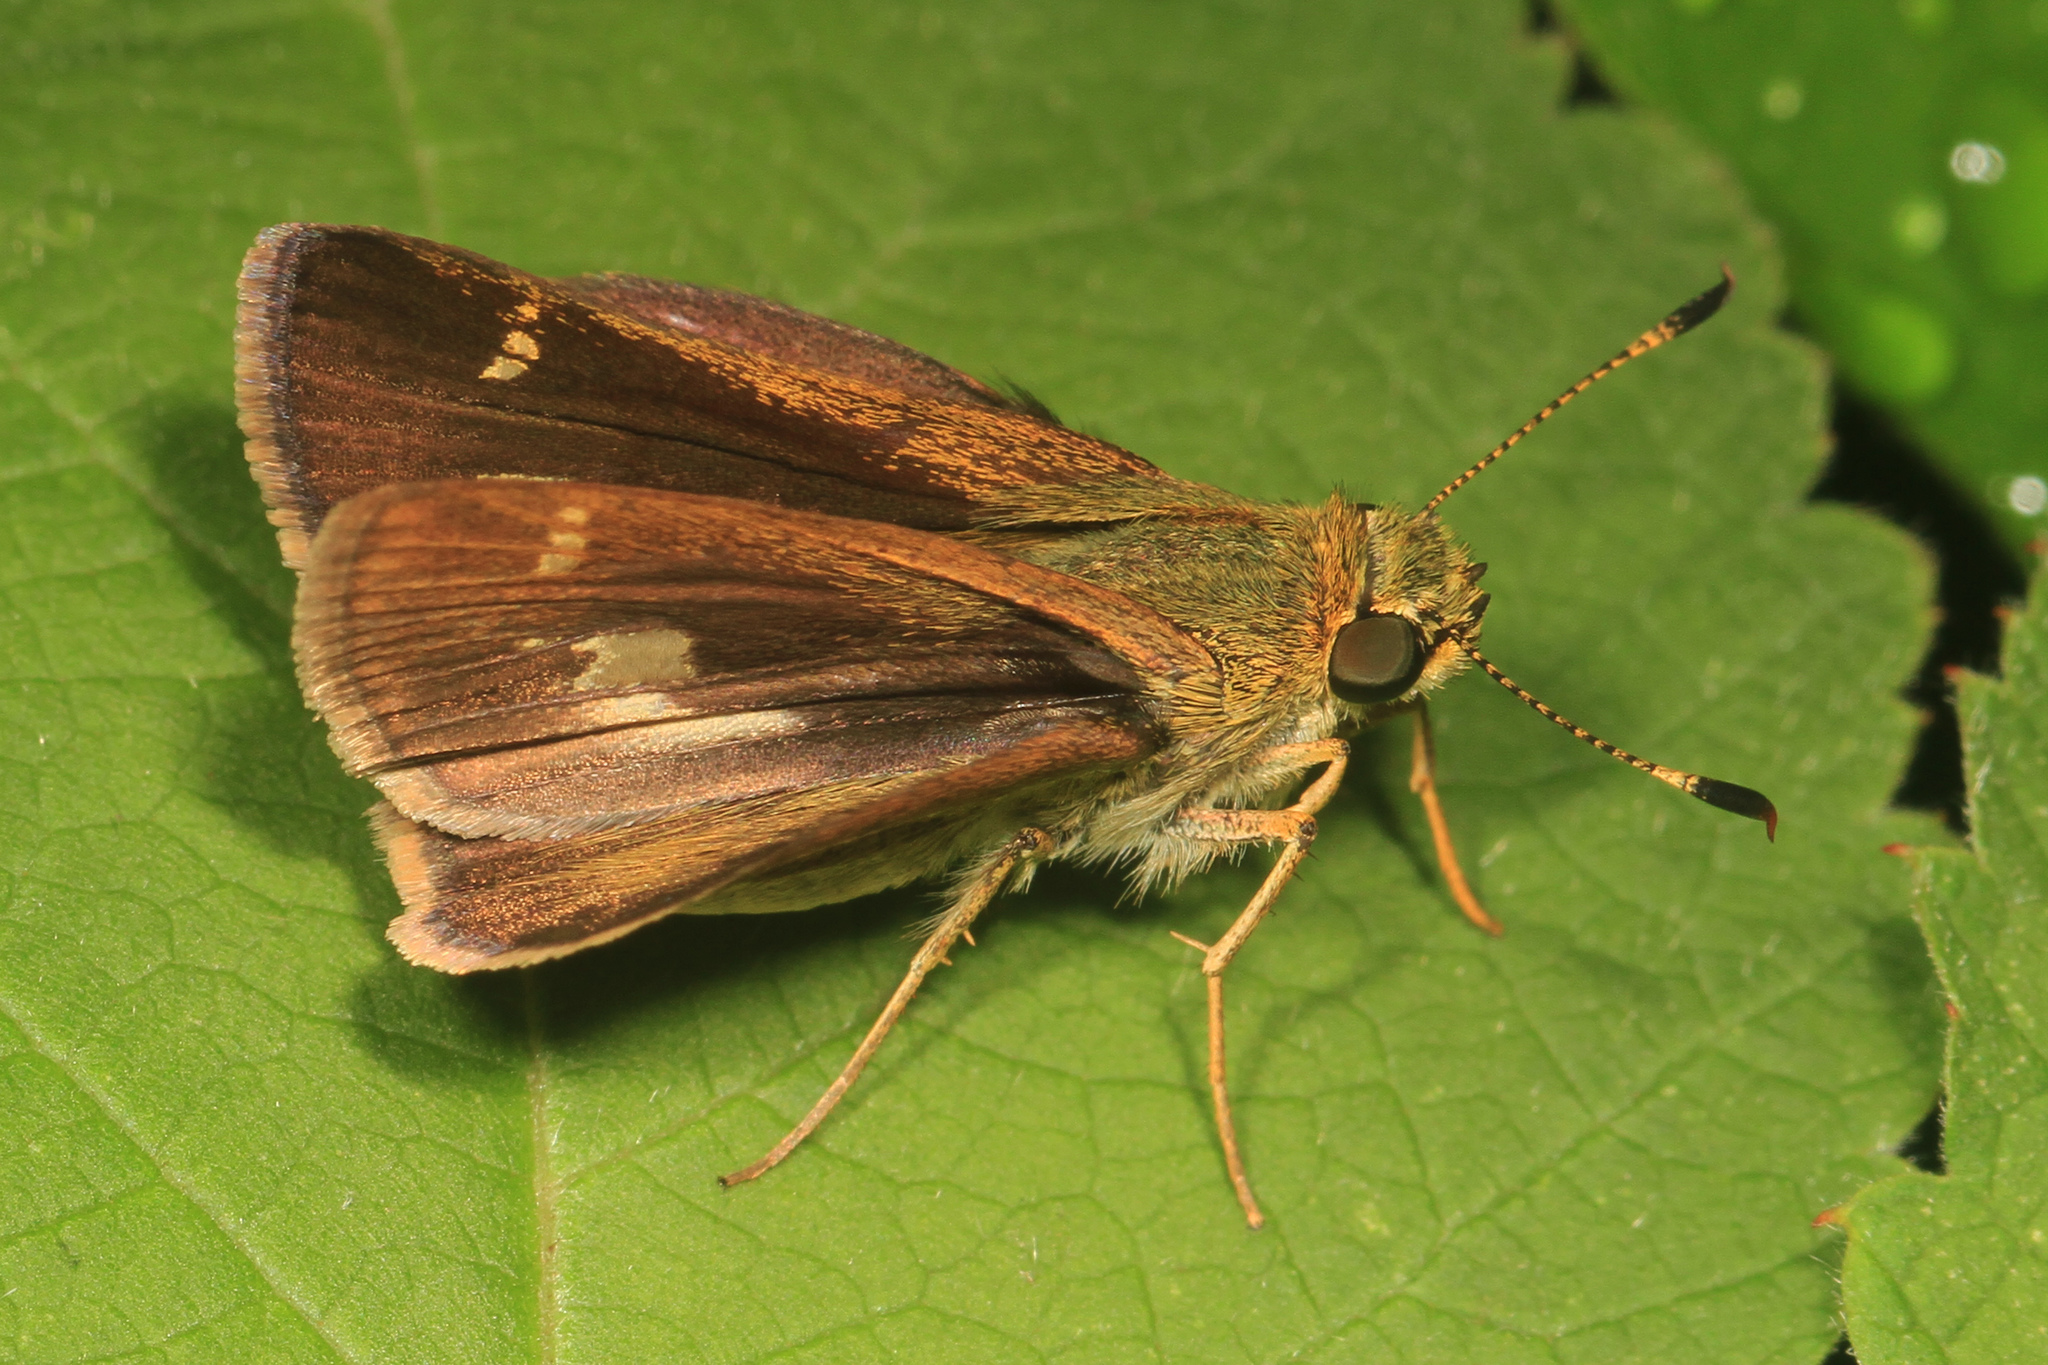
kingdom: Animalia
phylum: Arthropoda
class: Insecta
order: Lepidoptera
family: Hesperiidae
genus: Vernia
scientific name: Vernia verna
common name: Little glassywing
